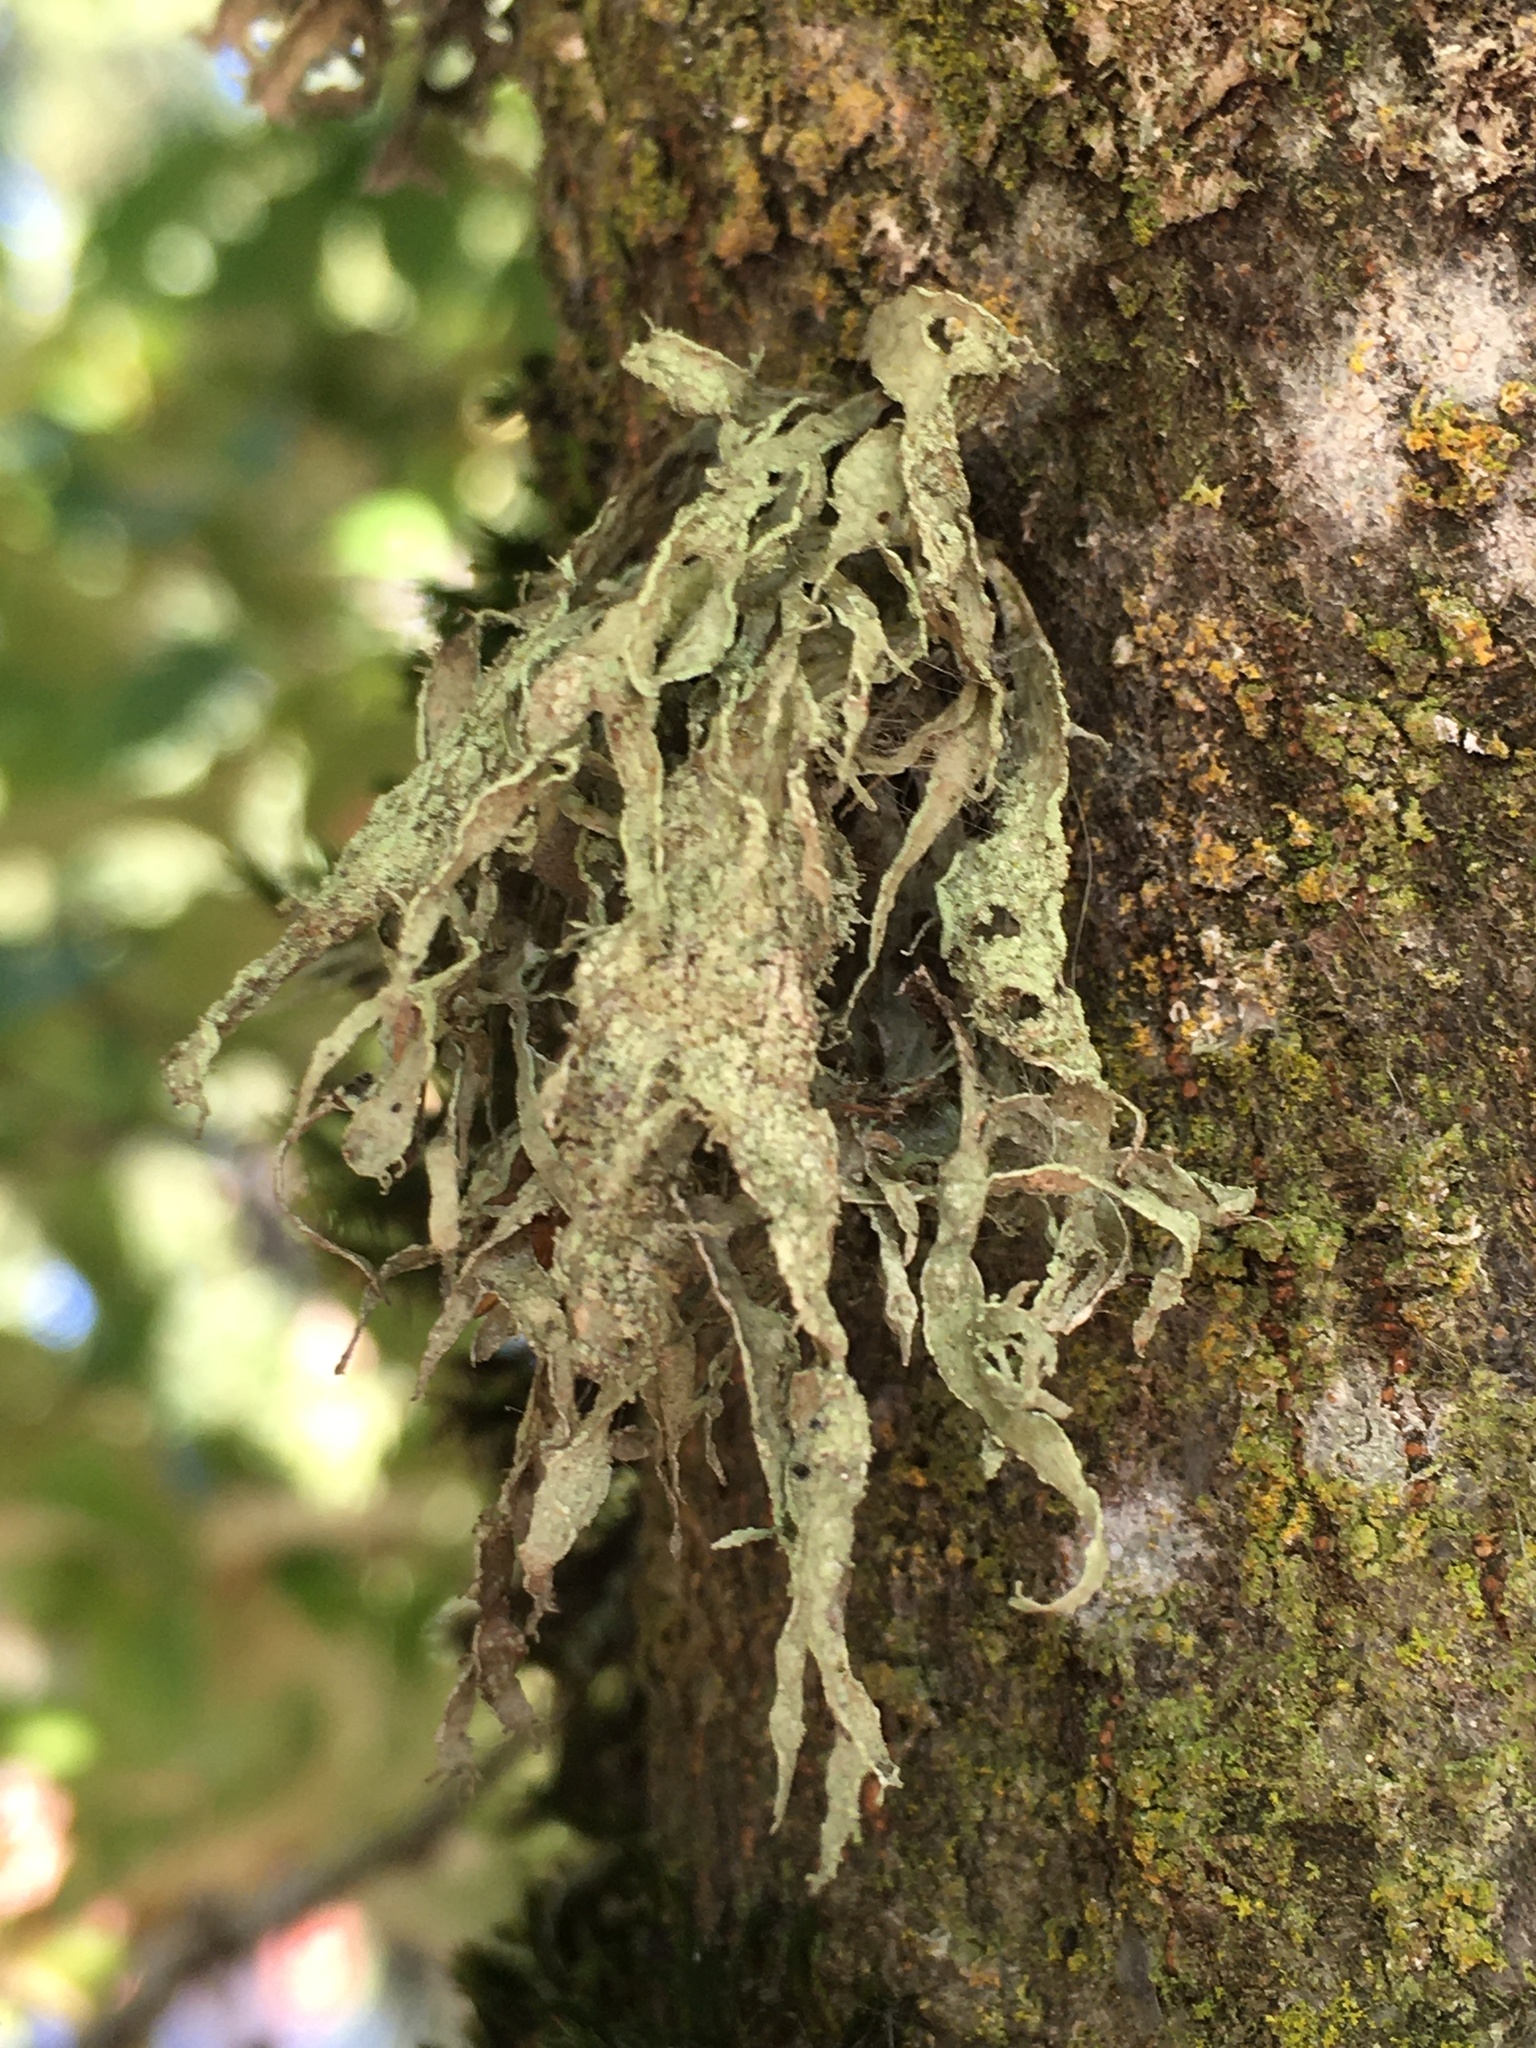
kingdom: Fungi
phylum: Ascomycota
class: Lecanoromycetes
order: Lecanorales
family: Ramalinaceae
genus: Ramalina
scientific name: Ramalina subleptocarpha
